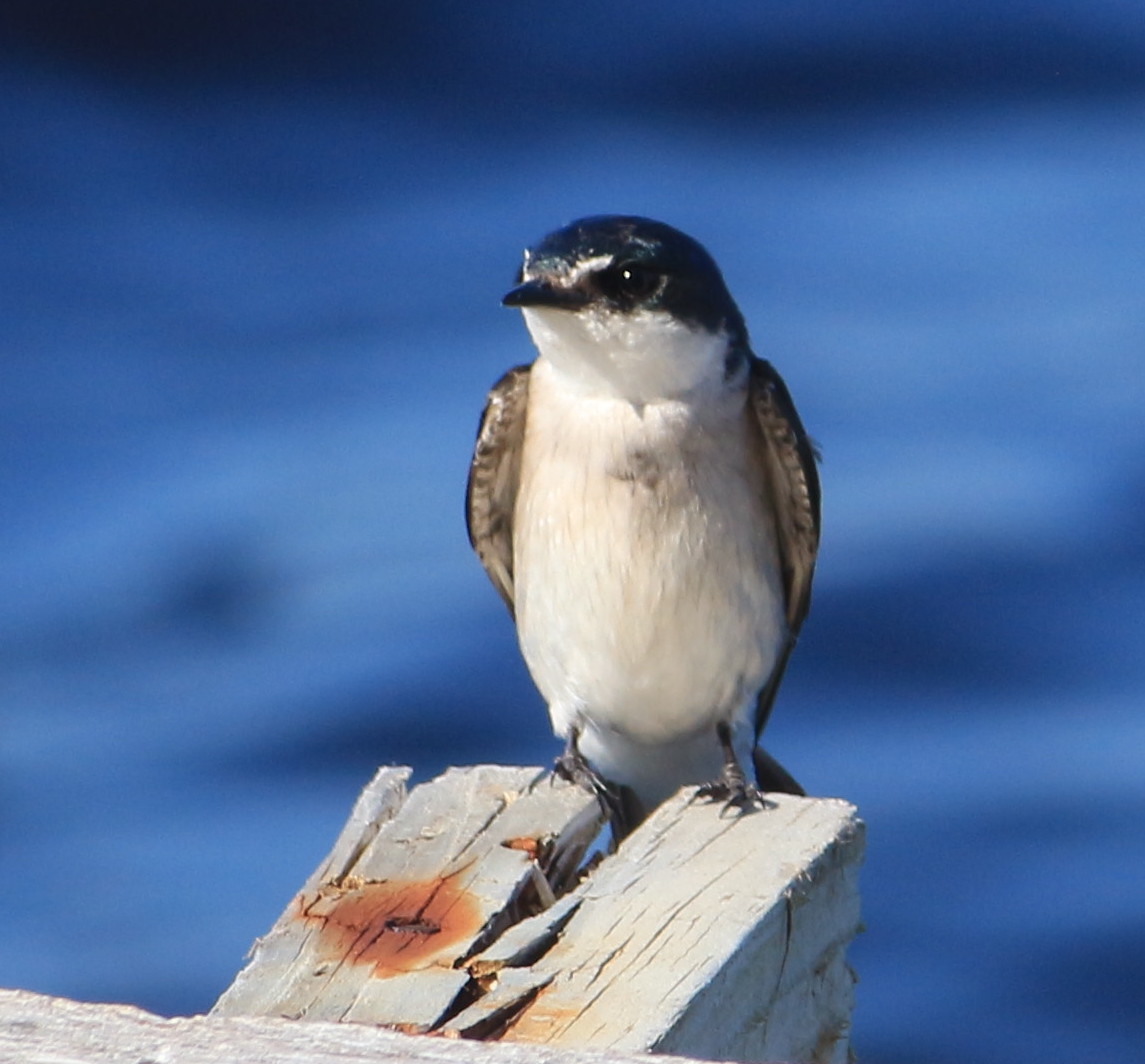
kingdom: Animalia
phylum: Chordata
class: Aves
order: Passeriformes
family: Hirundinidae
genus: Tachycineta
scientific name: Tachycineta albilinea
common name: Mangrove swallow
